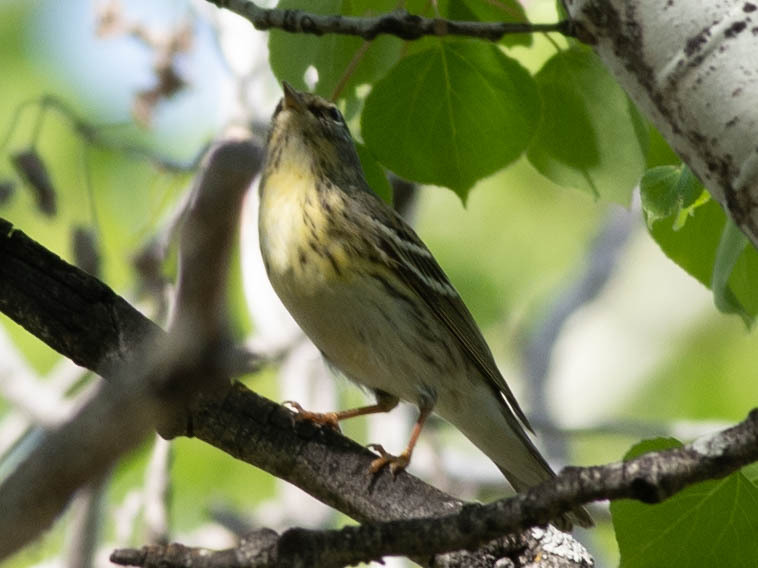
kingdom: Animalia
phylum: Chordata
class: Aves
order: Passeriformes
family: Parulidae
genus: Setophaga
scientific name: Setophaga striata
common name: Blackpoll warbler
